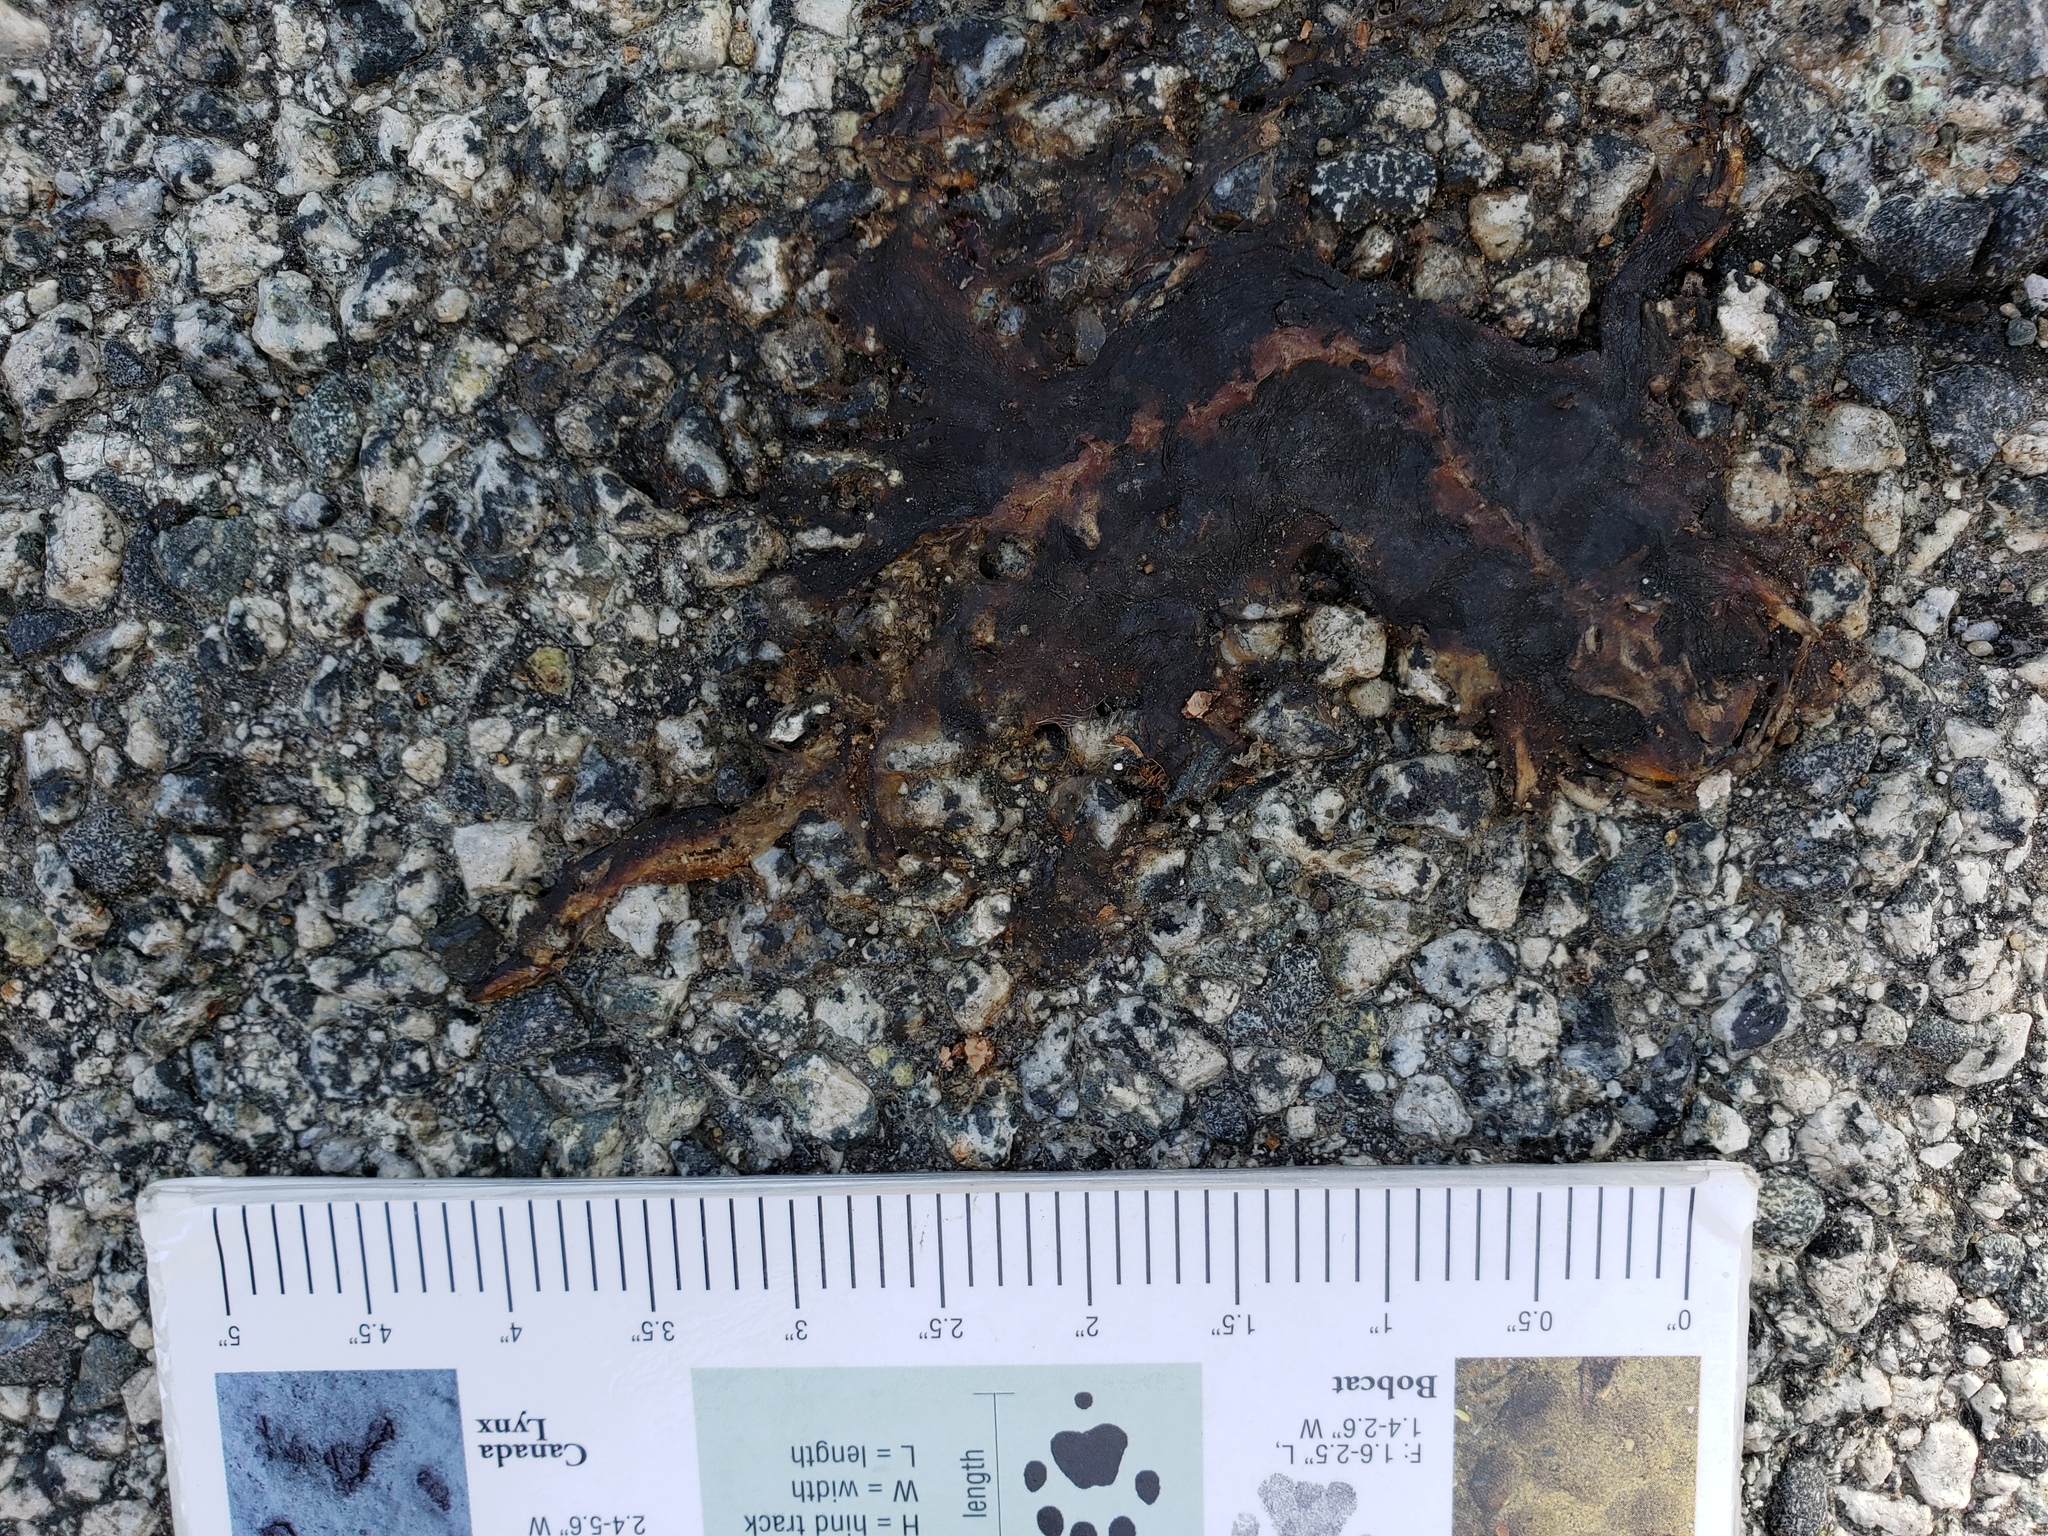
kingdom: Animalia
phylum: Chordata
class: Amphibia
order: Caudata
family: Salamandridae
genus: Taricha
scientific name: Taricha
